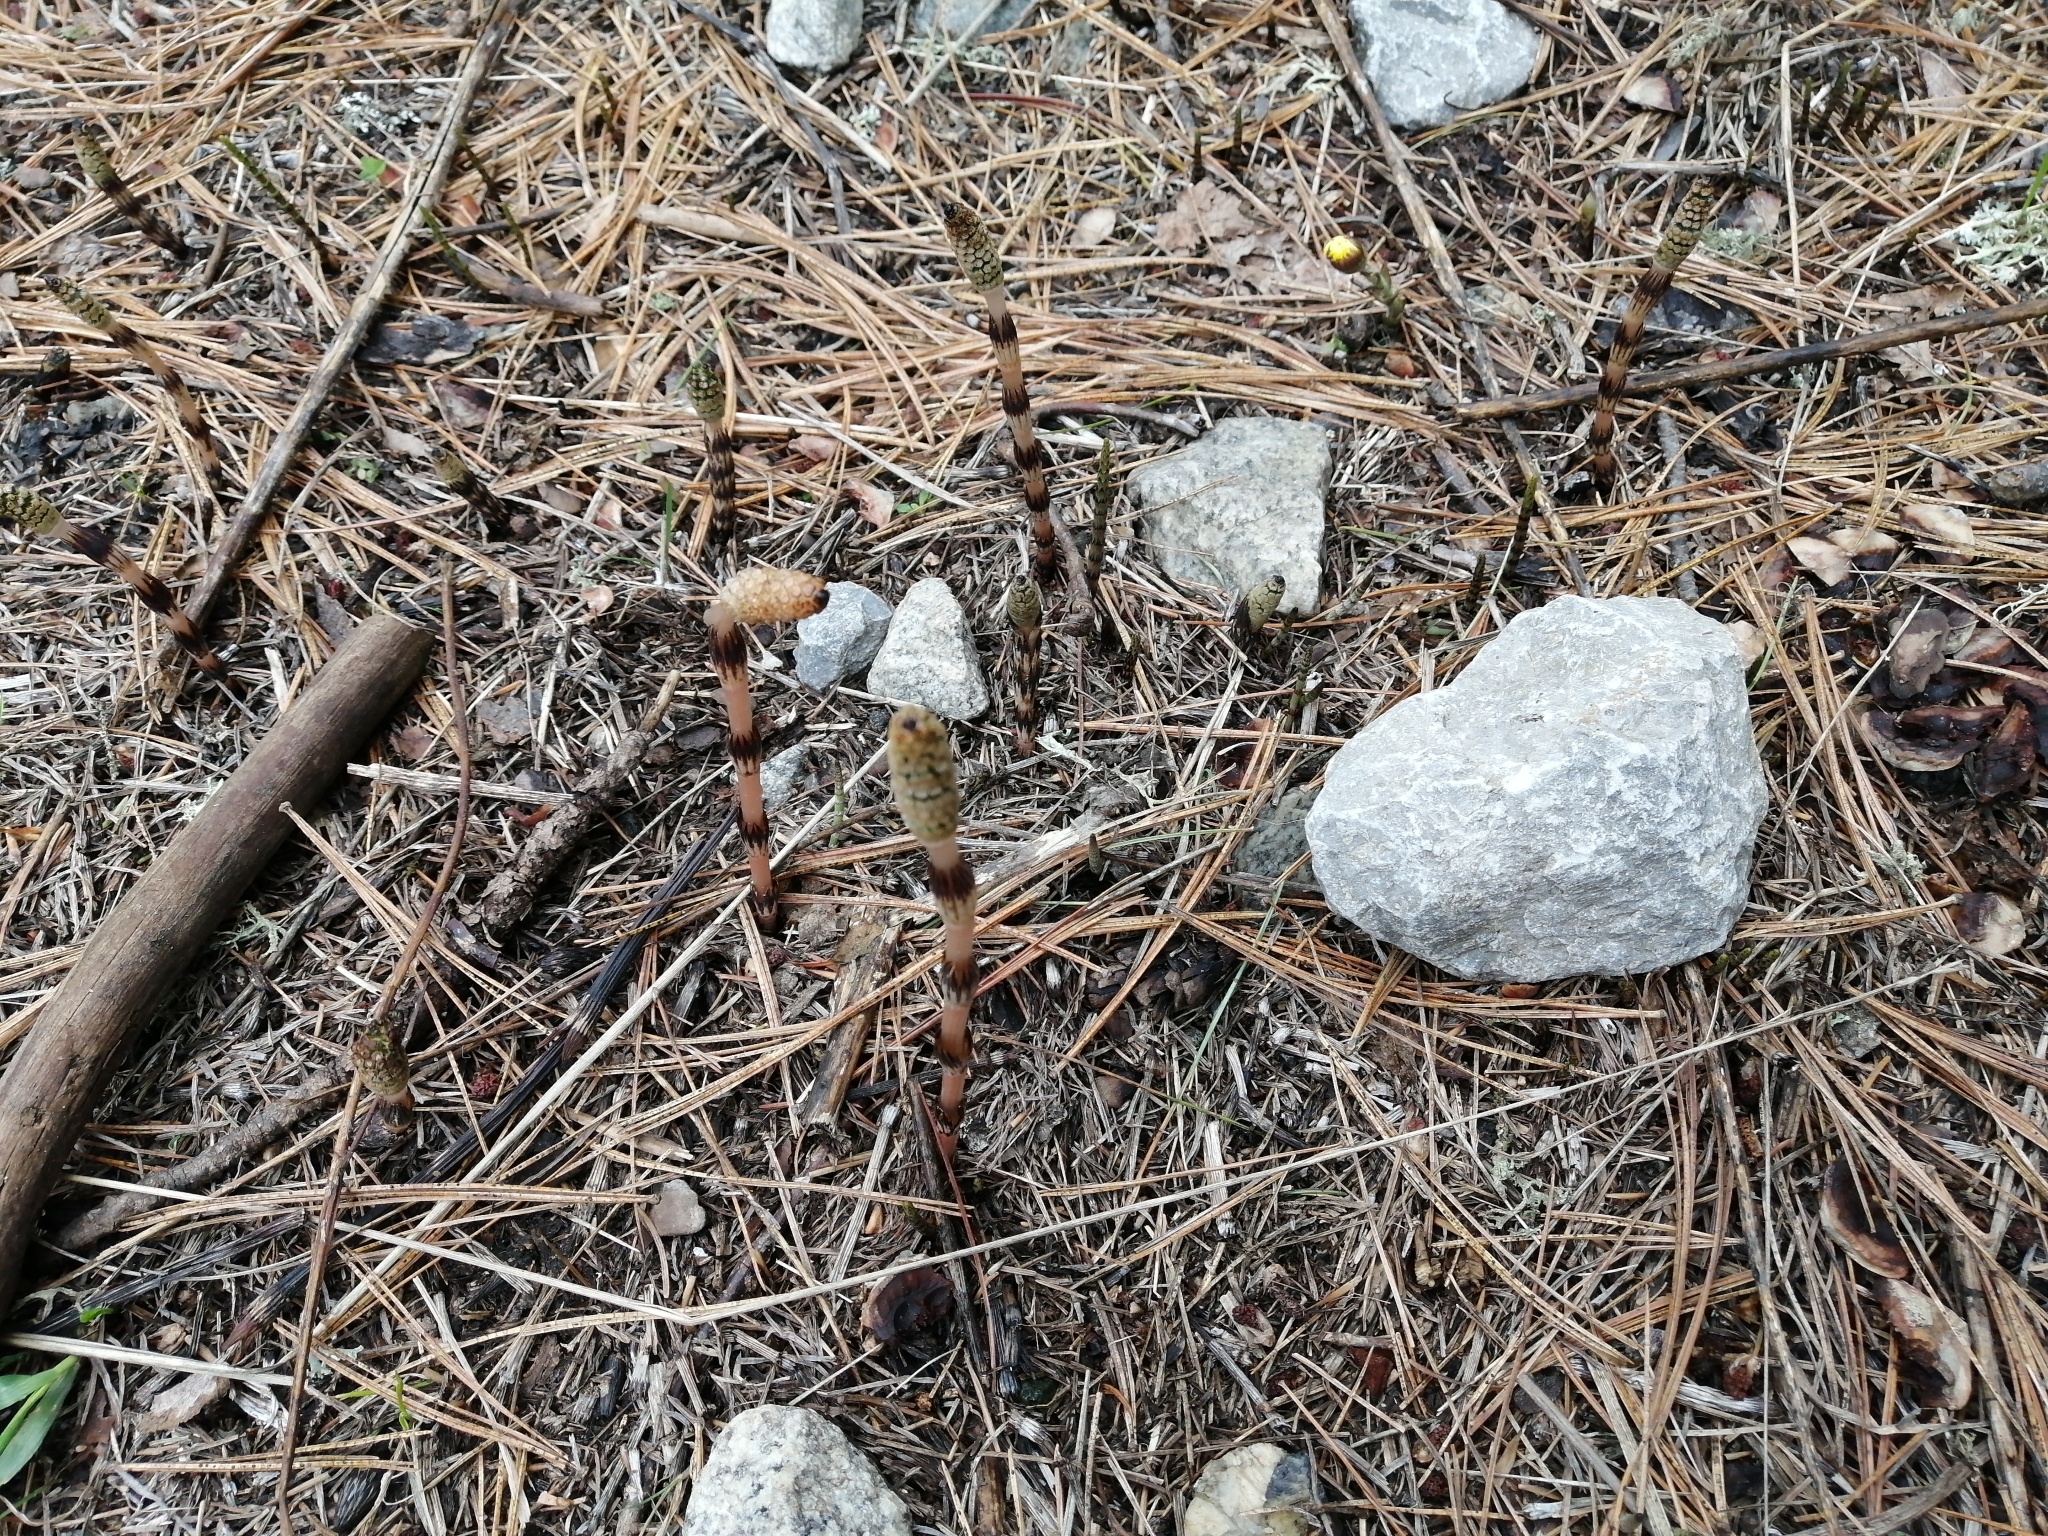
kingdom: Plantae
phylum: Tracheophyta
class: Polypodiopsida
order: Equisetales
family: Equisetaceae
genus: Equisetum
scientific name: Equisetum arvense
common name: Field horsetail
